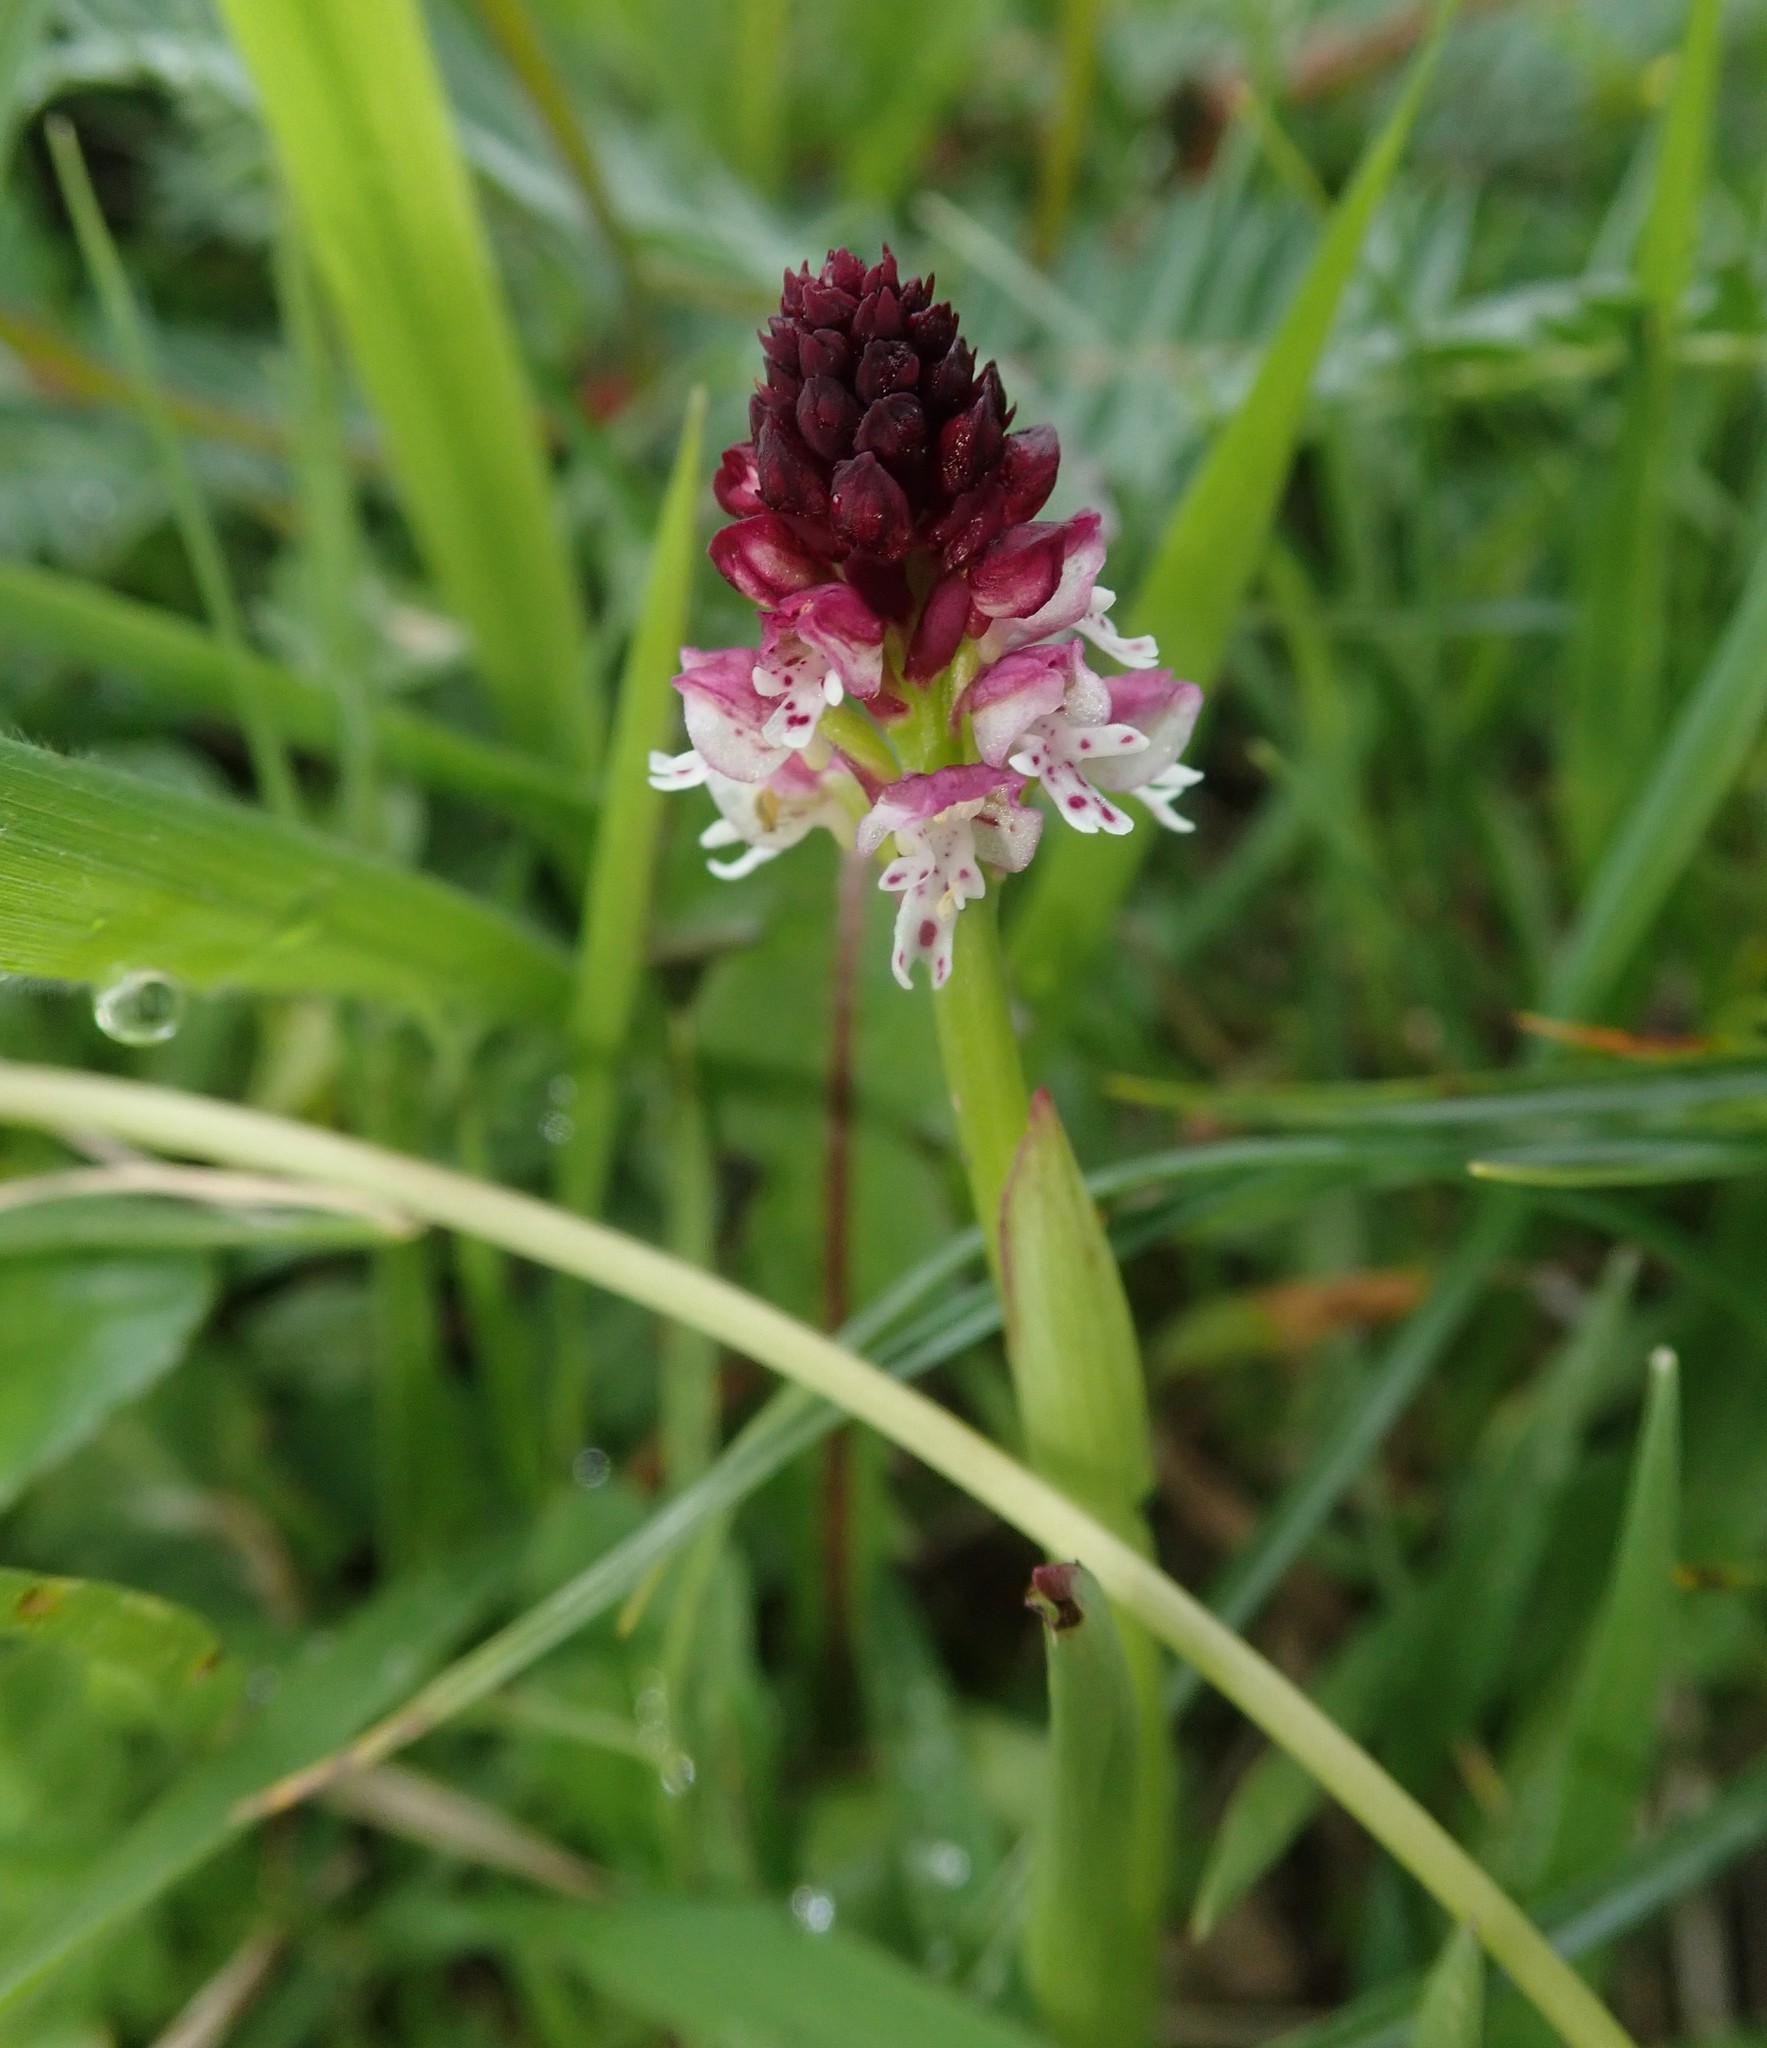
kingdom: Plantae
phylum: Tracheophyta
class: Liliopsida
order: Asparagales
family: Orchidaceae
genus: Neotinea
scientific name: Neotinea ustulata
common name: Burnt orchid
